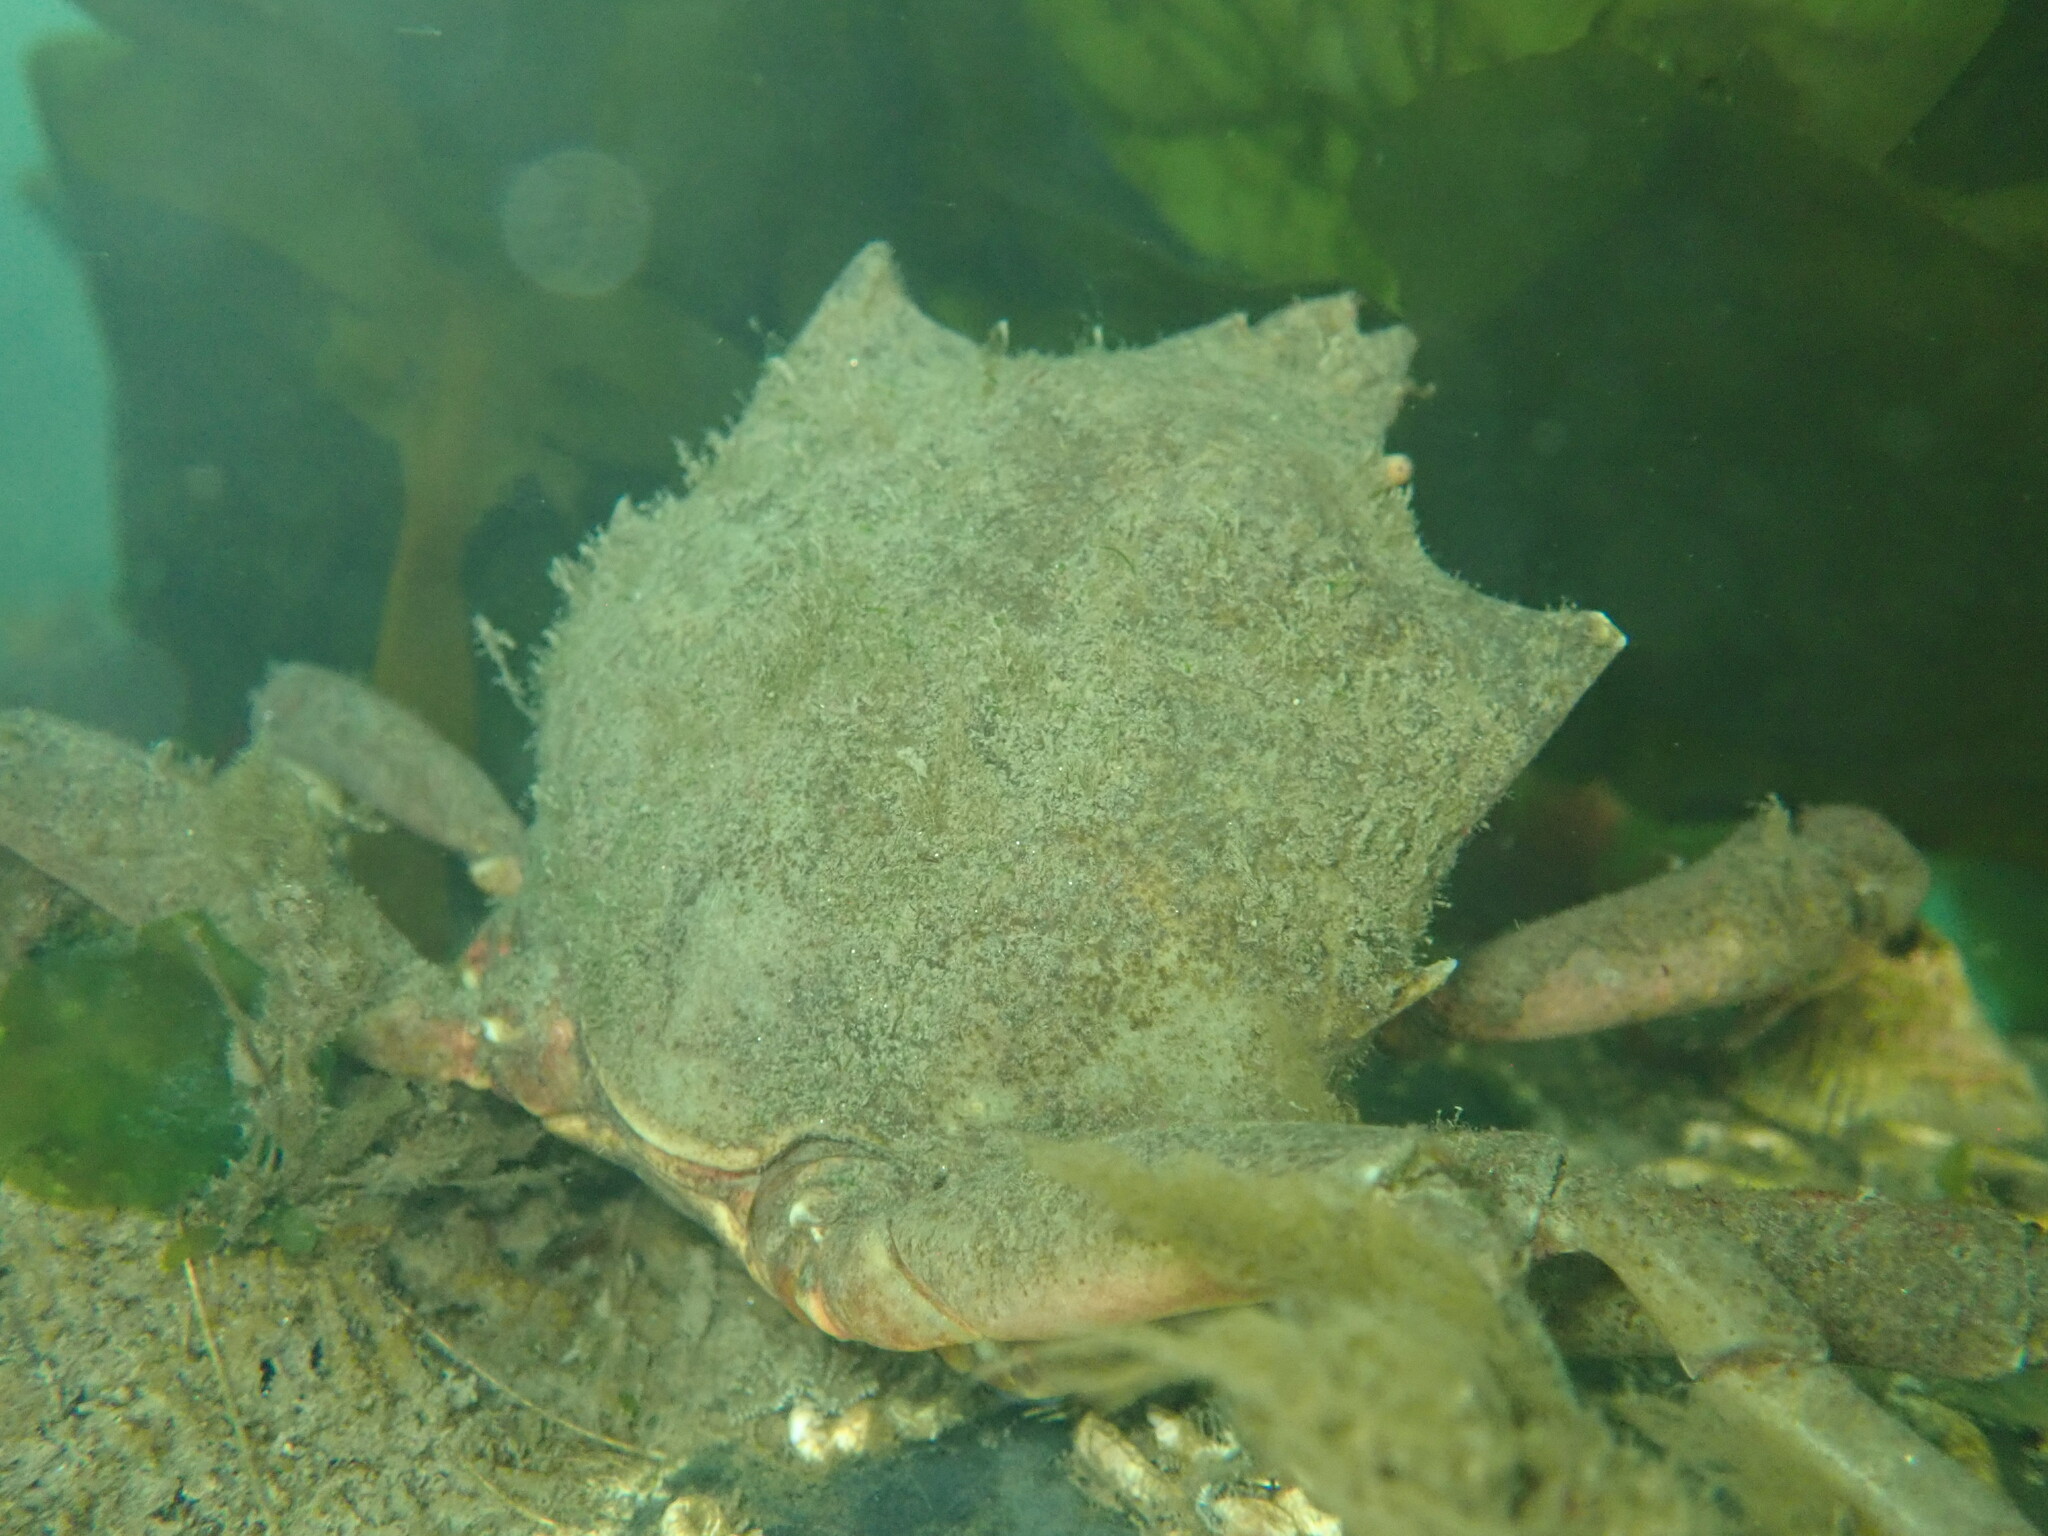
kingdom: Animalia
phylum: Arthropoda
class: Malacostraca
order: Decapoda
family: Epialtidae
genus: Pugettia
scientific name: Pugettia producta
